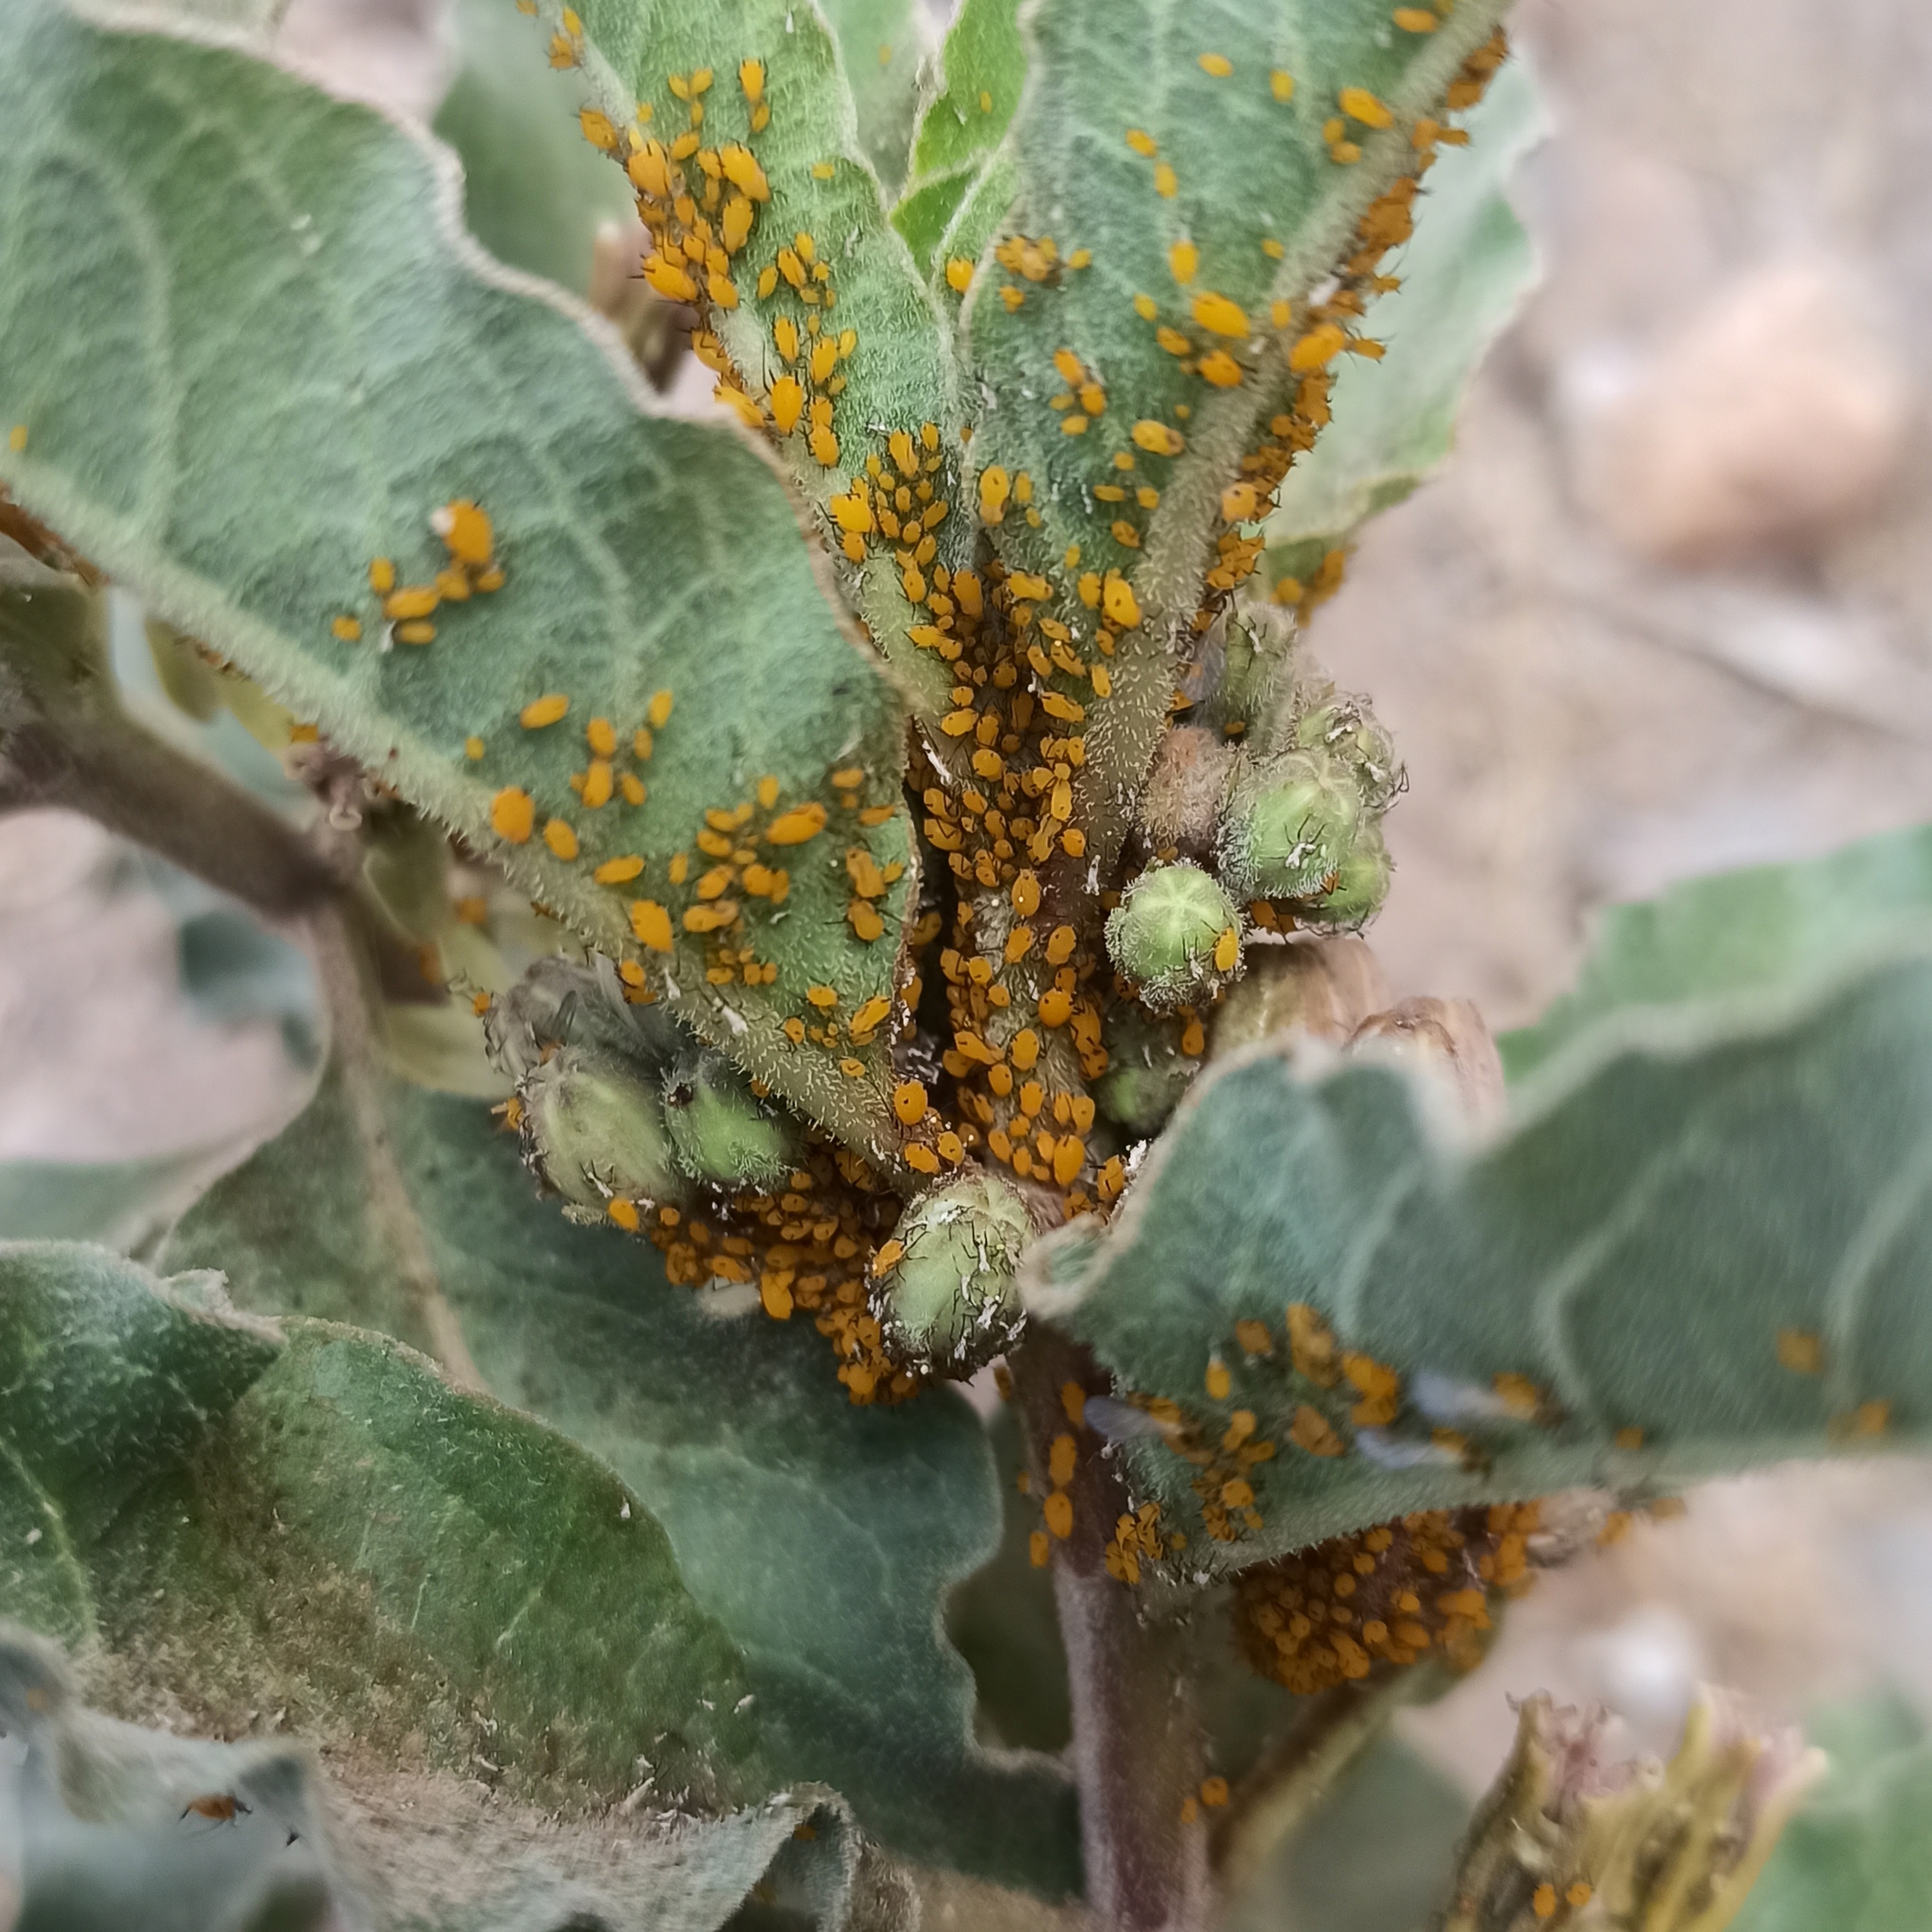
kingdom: Animalia
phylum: Arthropoda
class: Insecta
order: Hemiptera
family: Aphididae
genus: Aphis
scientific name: Aphis nerii
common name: Oleander aphid
